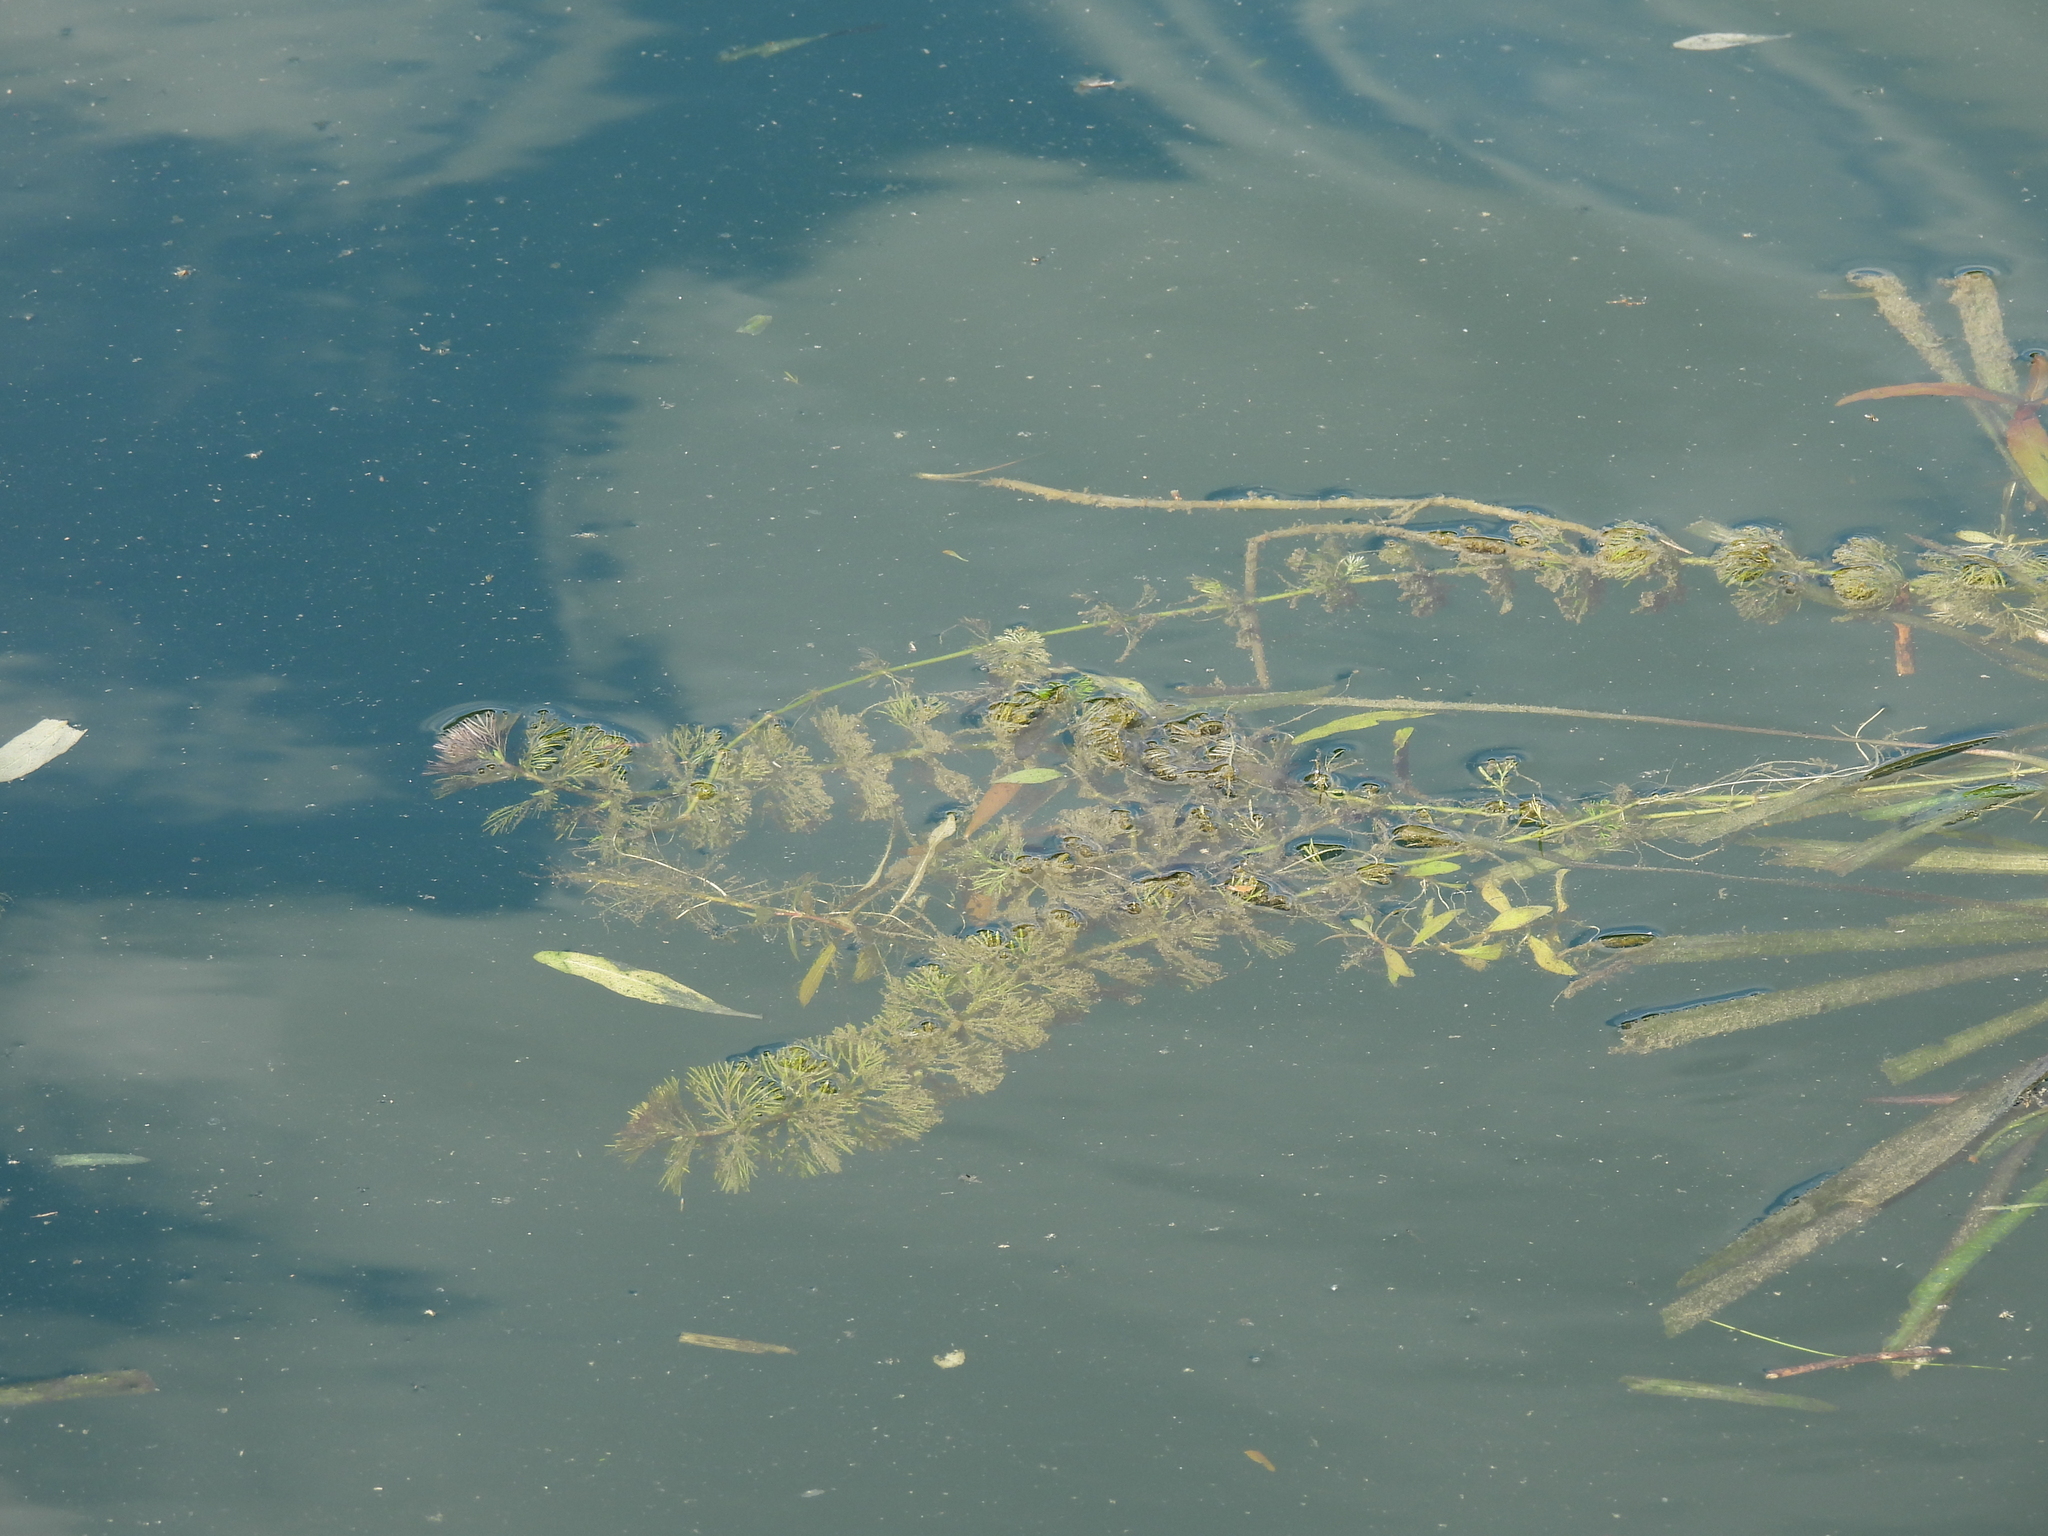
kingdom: Plantae
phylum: Tracheophyta
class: Magnoliopsida
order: Lamiales
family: Plantaginaceae
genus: Limnophila
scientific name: Limnophila sessiliflora
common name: Asian marshweed
